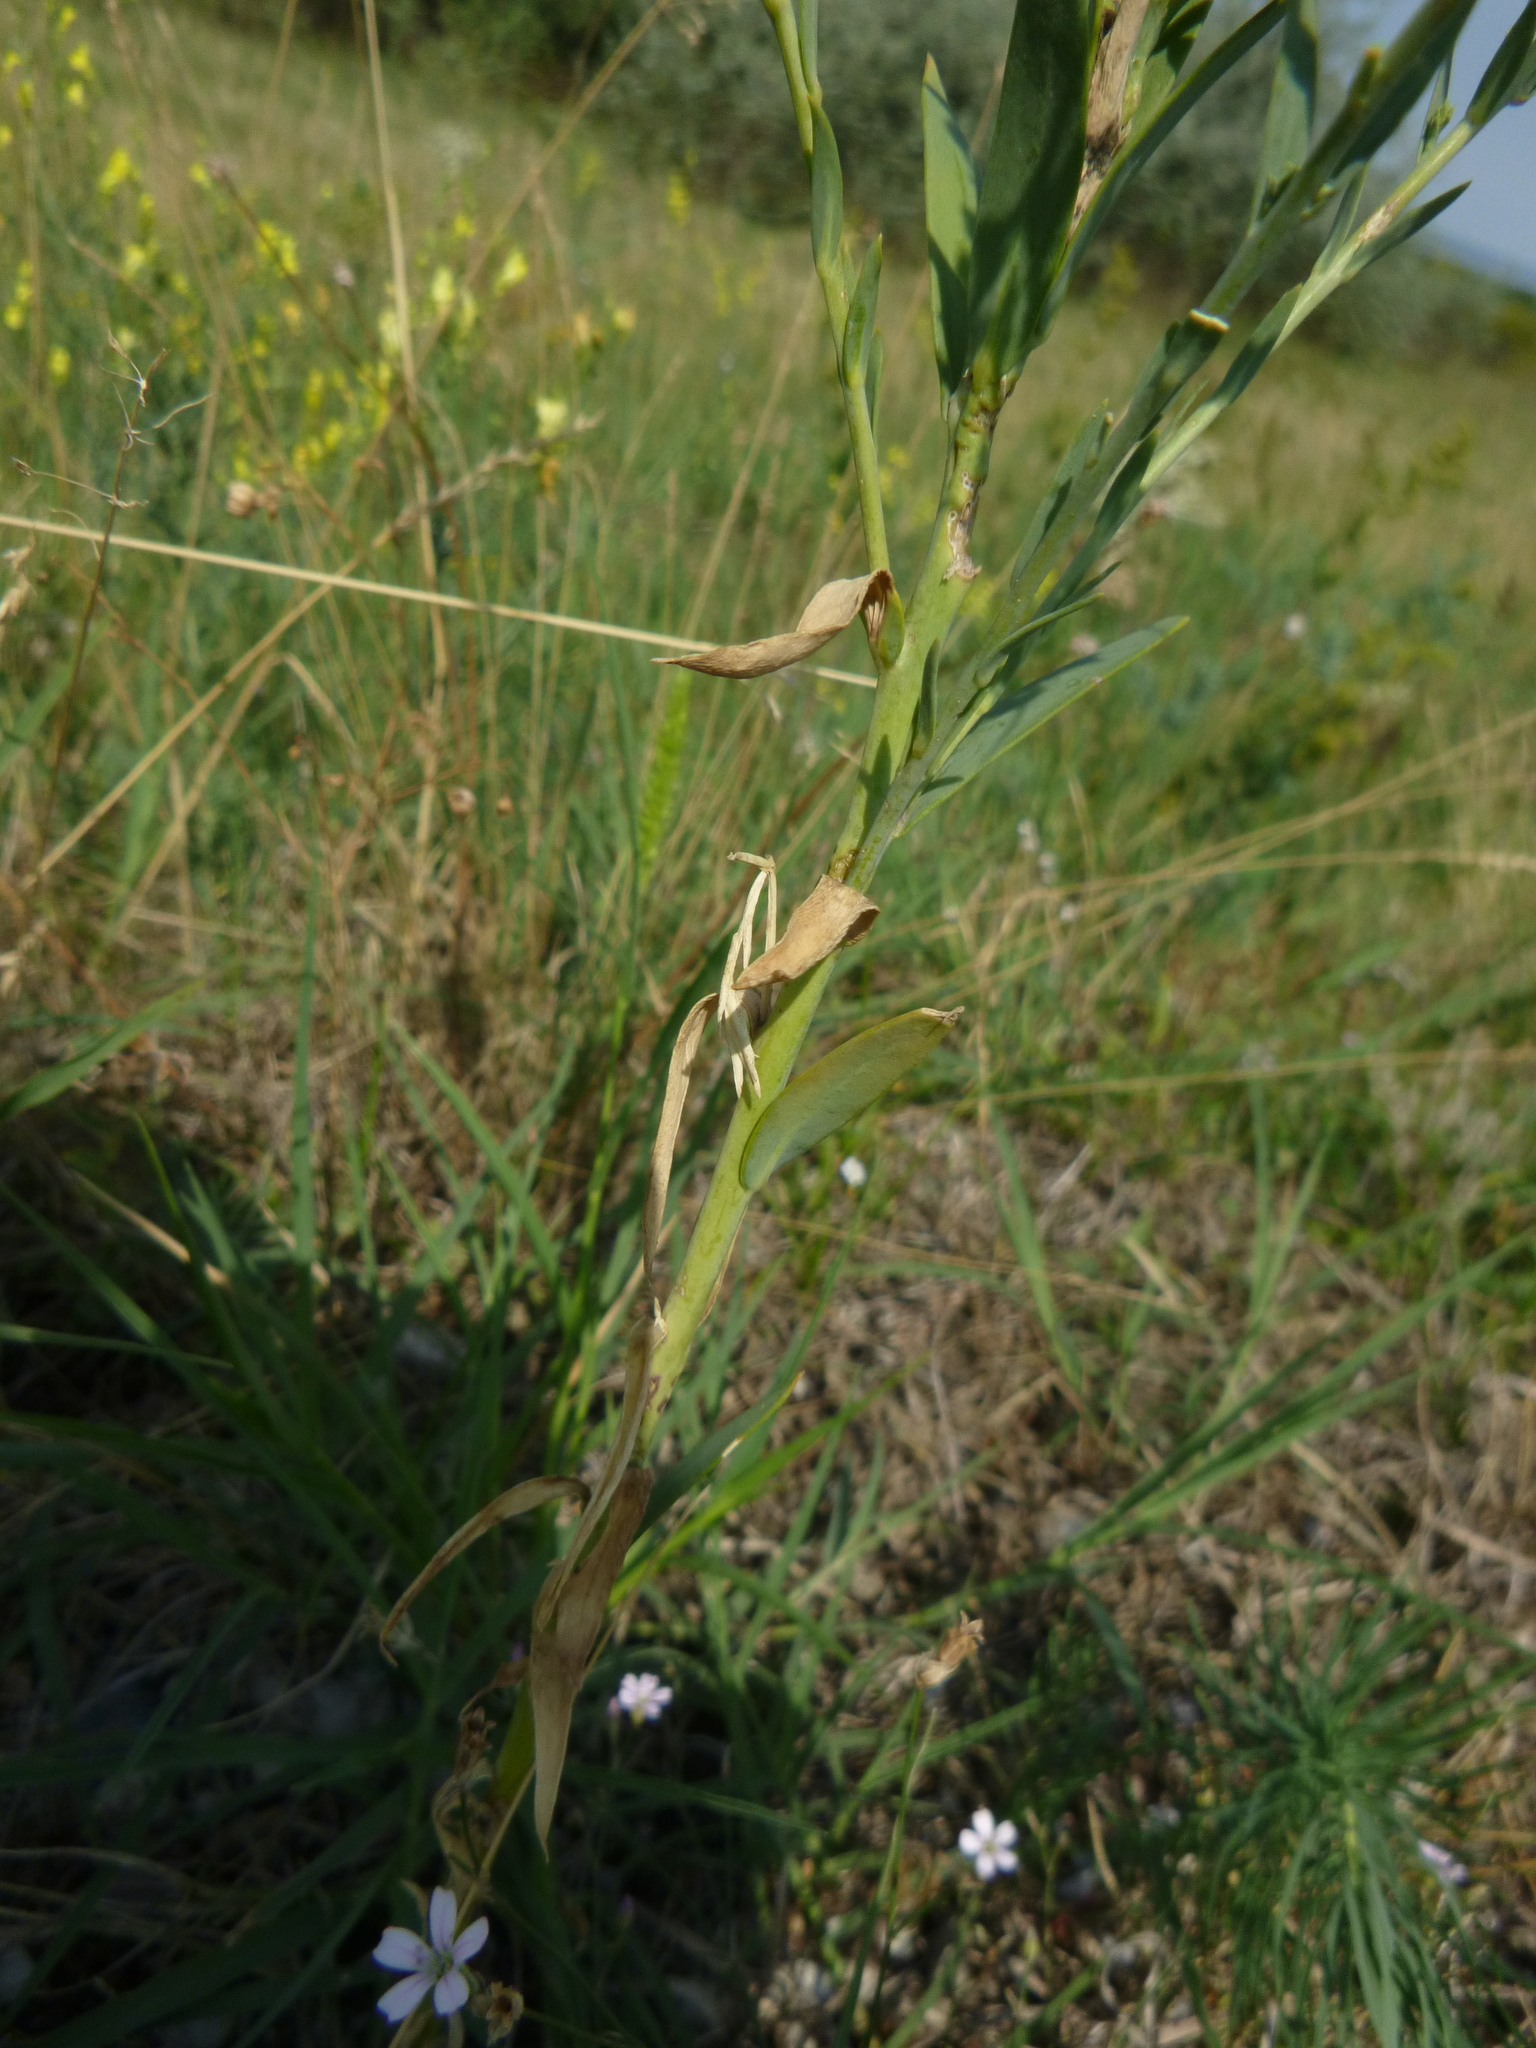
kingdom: Plantae
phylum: Tracheophyta
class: Magnoliopsida
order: Lamiales
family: Plantaginaceae
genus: Linaria
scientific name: Linaria genistifolia
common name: Broomleaf toadflax
